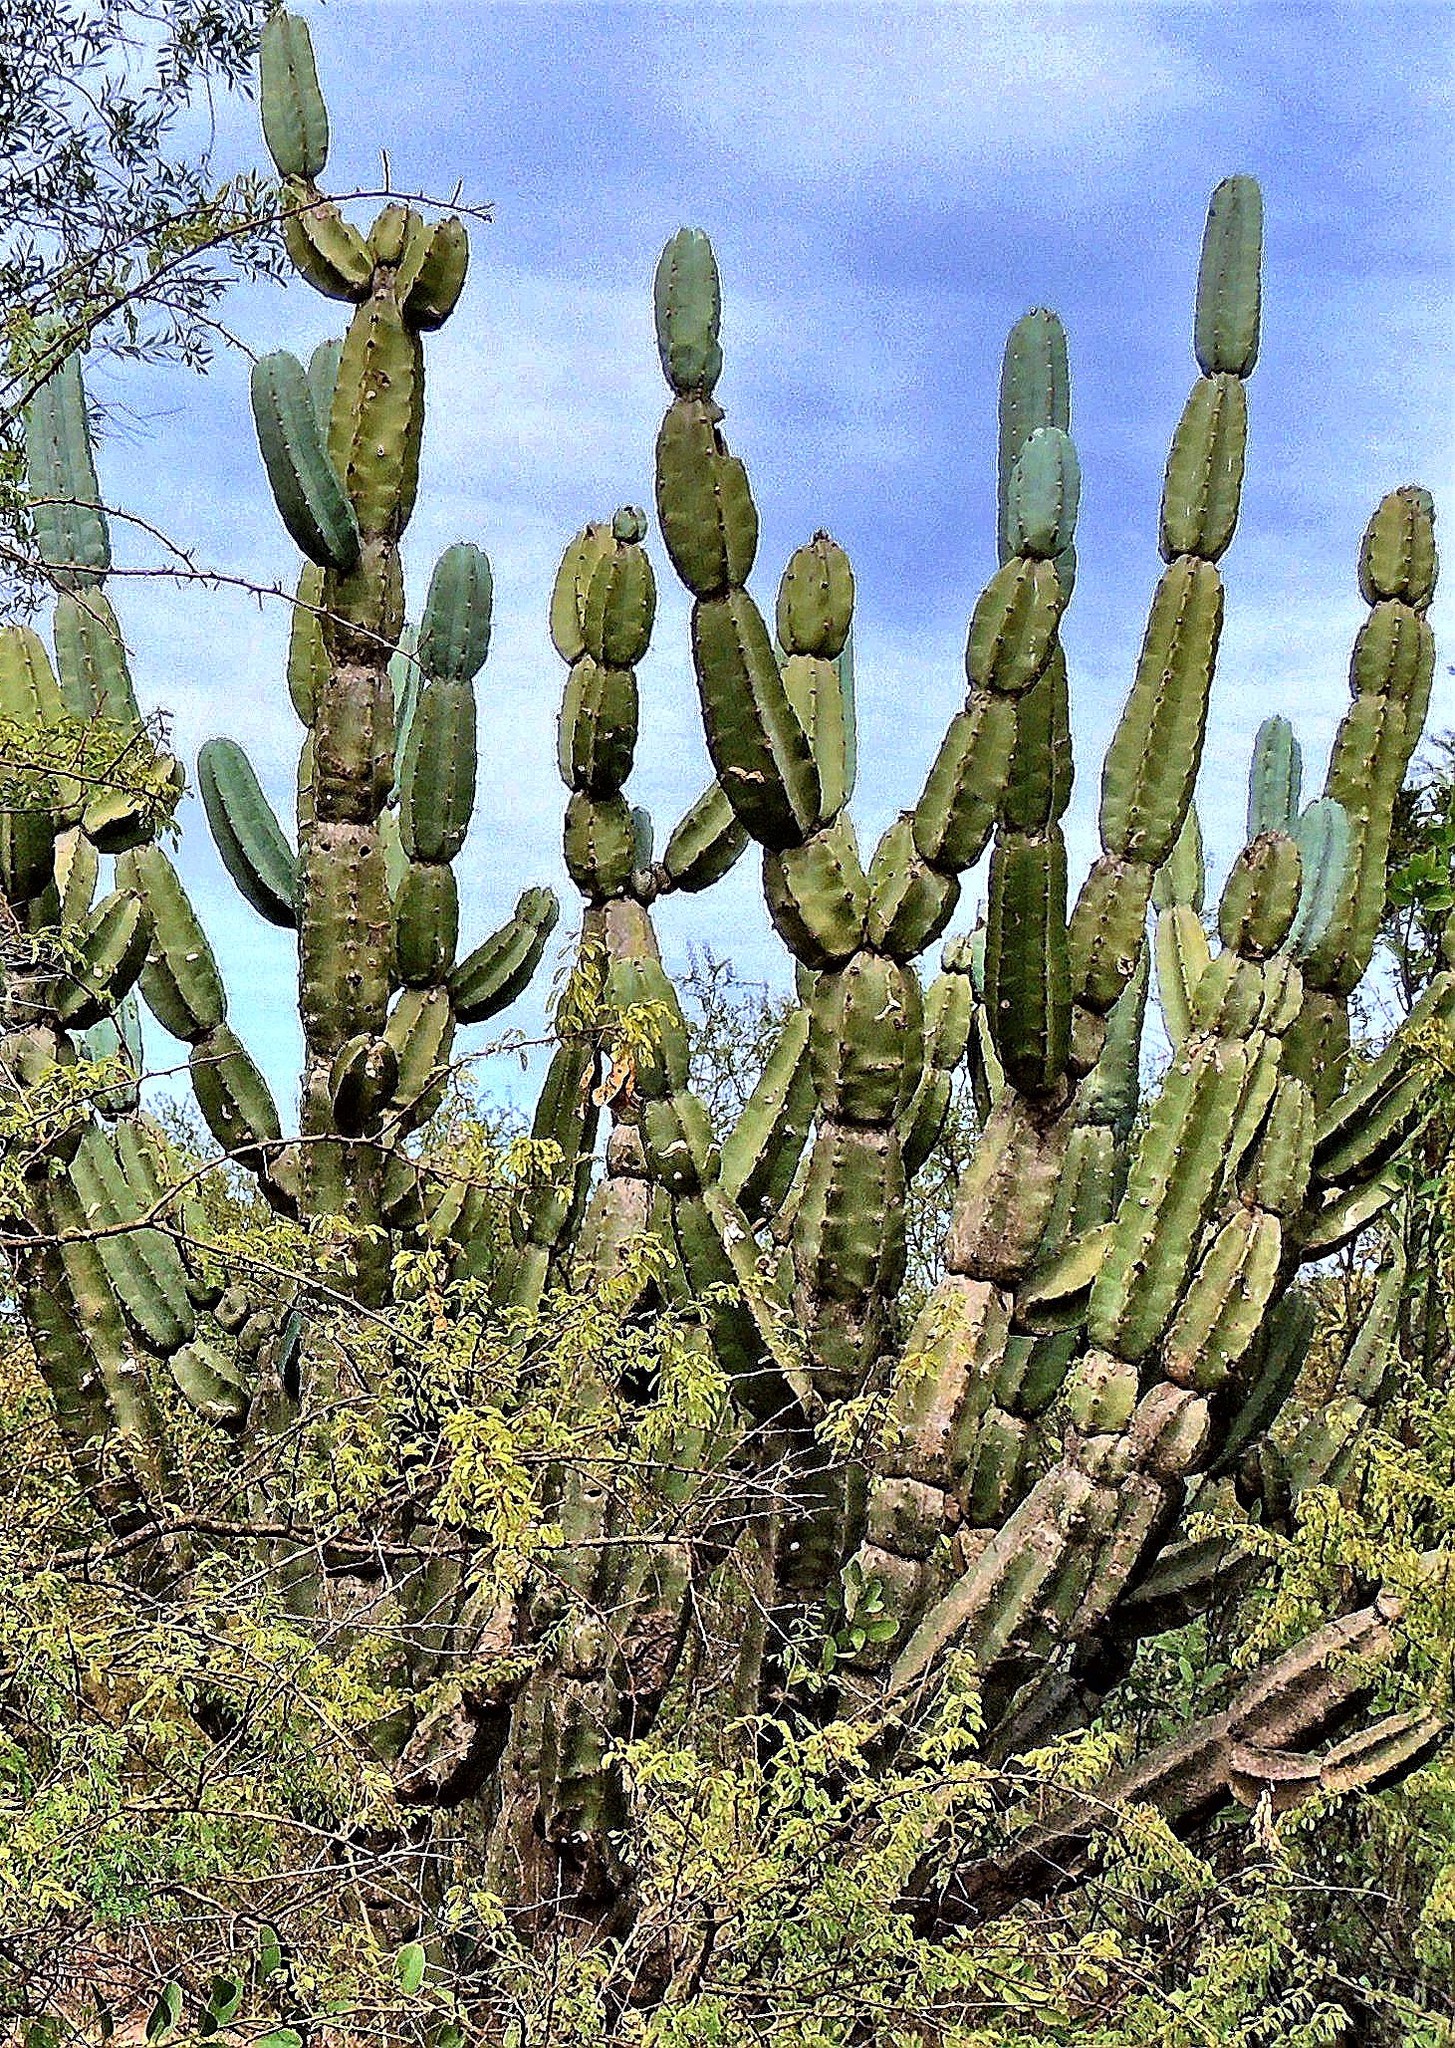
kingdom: Plantae
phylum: Tracheophyta
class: Magnoliopsida
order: Caryophyllales
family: Cactaceae
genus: Cereus
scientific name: Cereus forbesii
